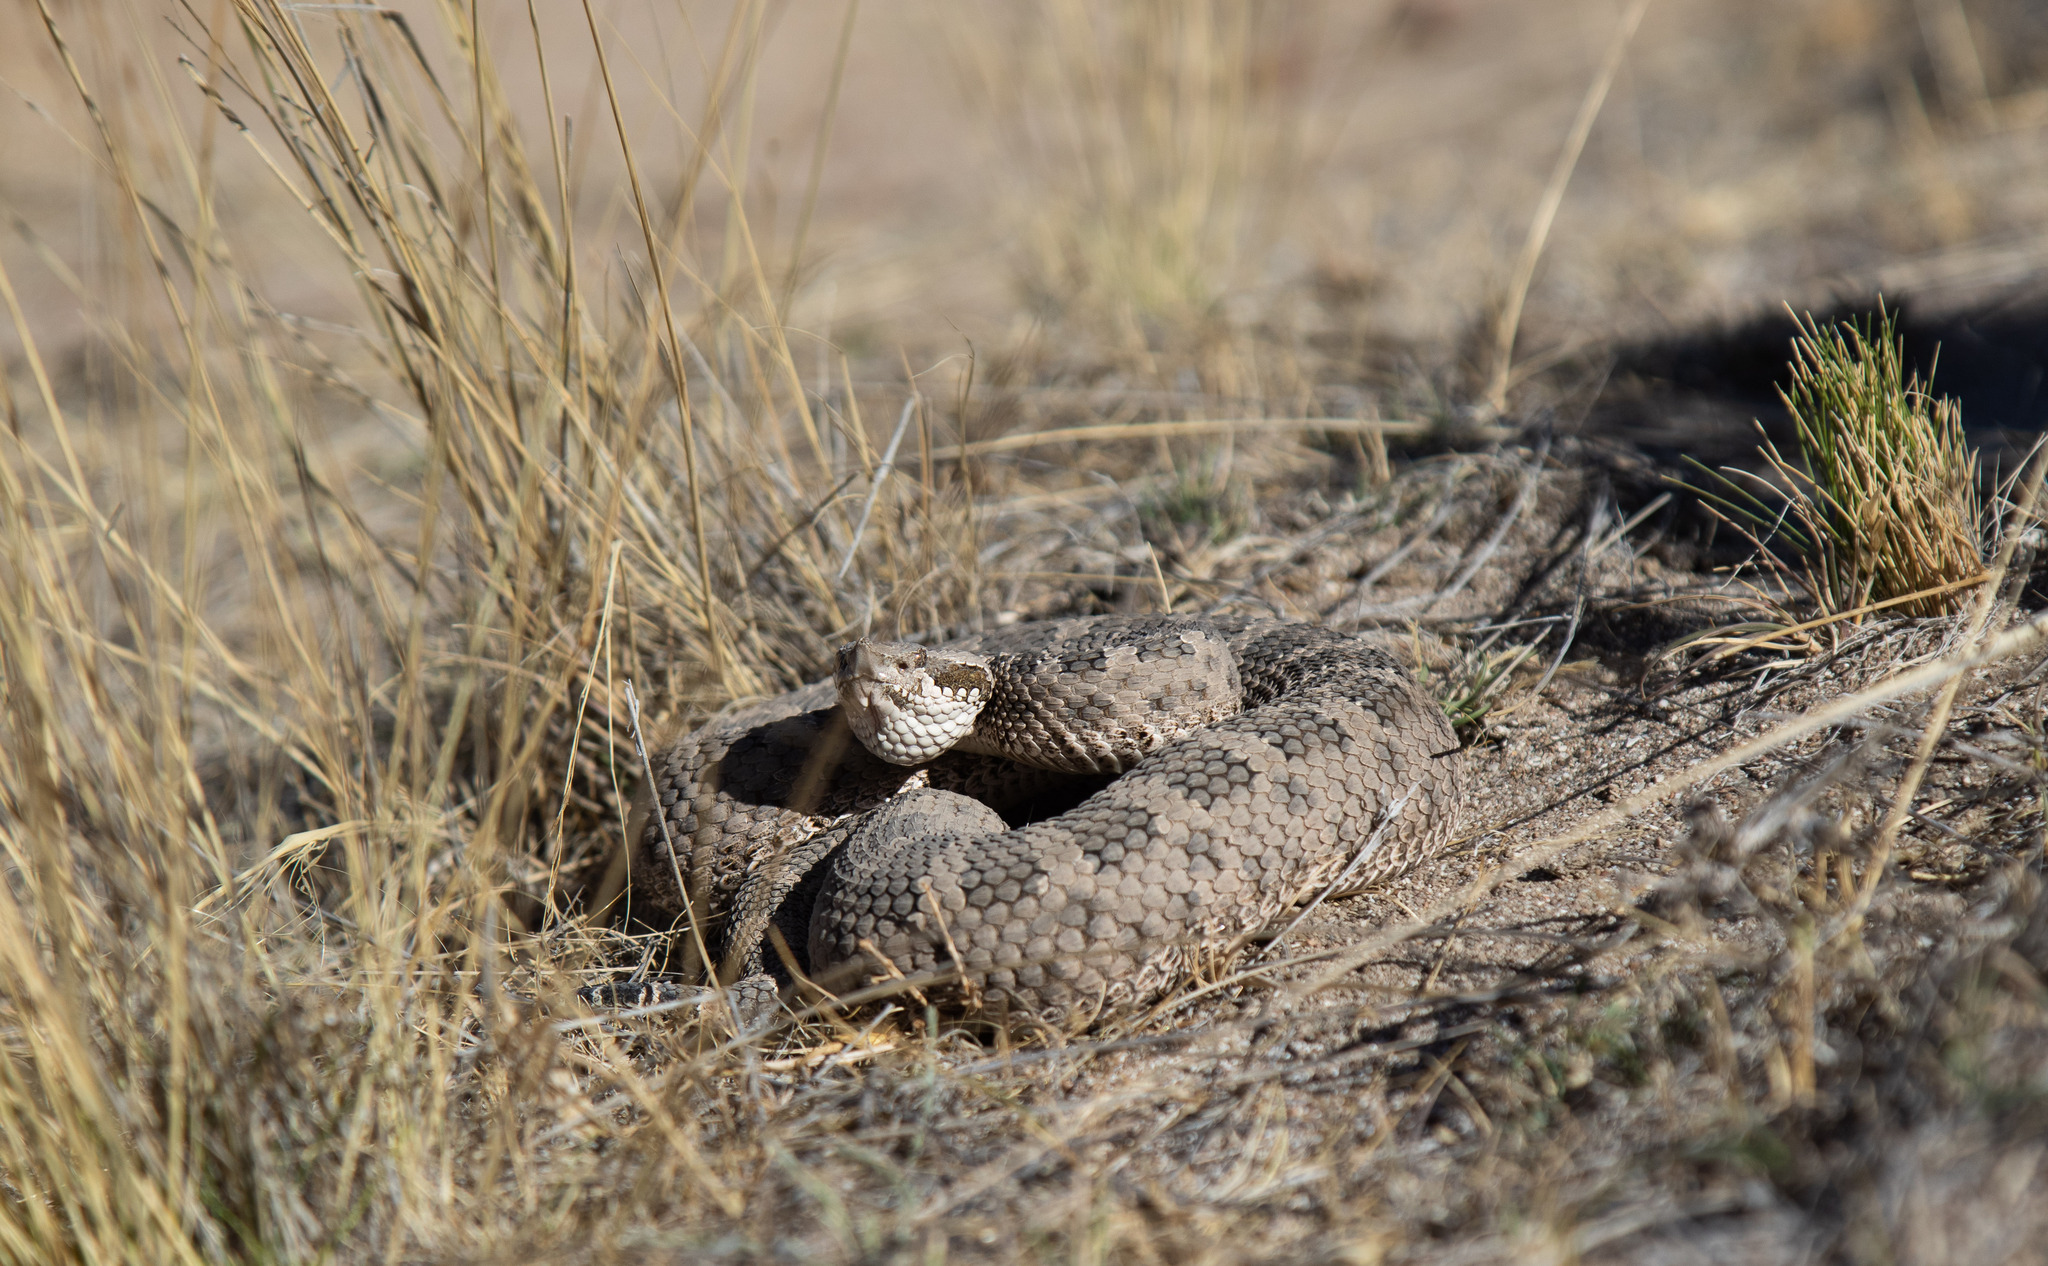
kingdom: Animalia
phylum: Chordata
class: Squamata
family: Viperidae
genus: Bothrops
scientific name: Bothrops ammodytoides
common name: Yararanata
